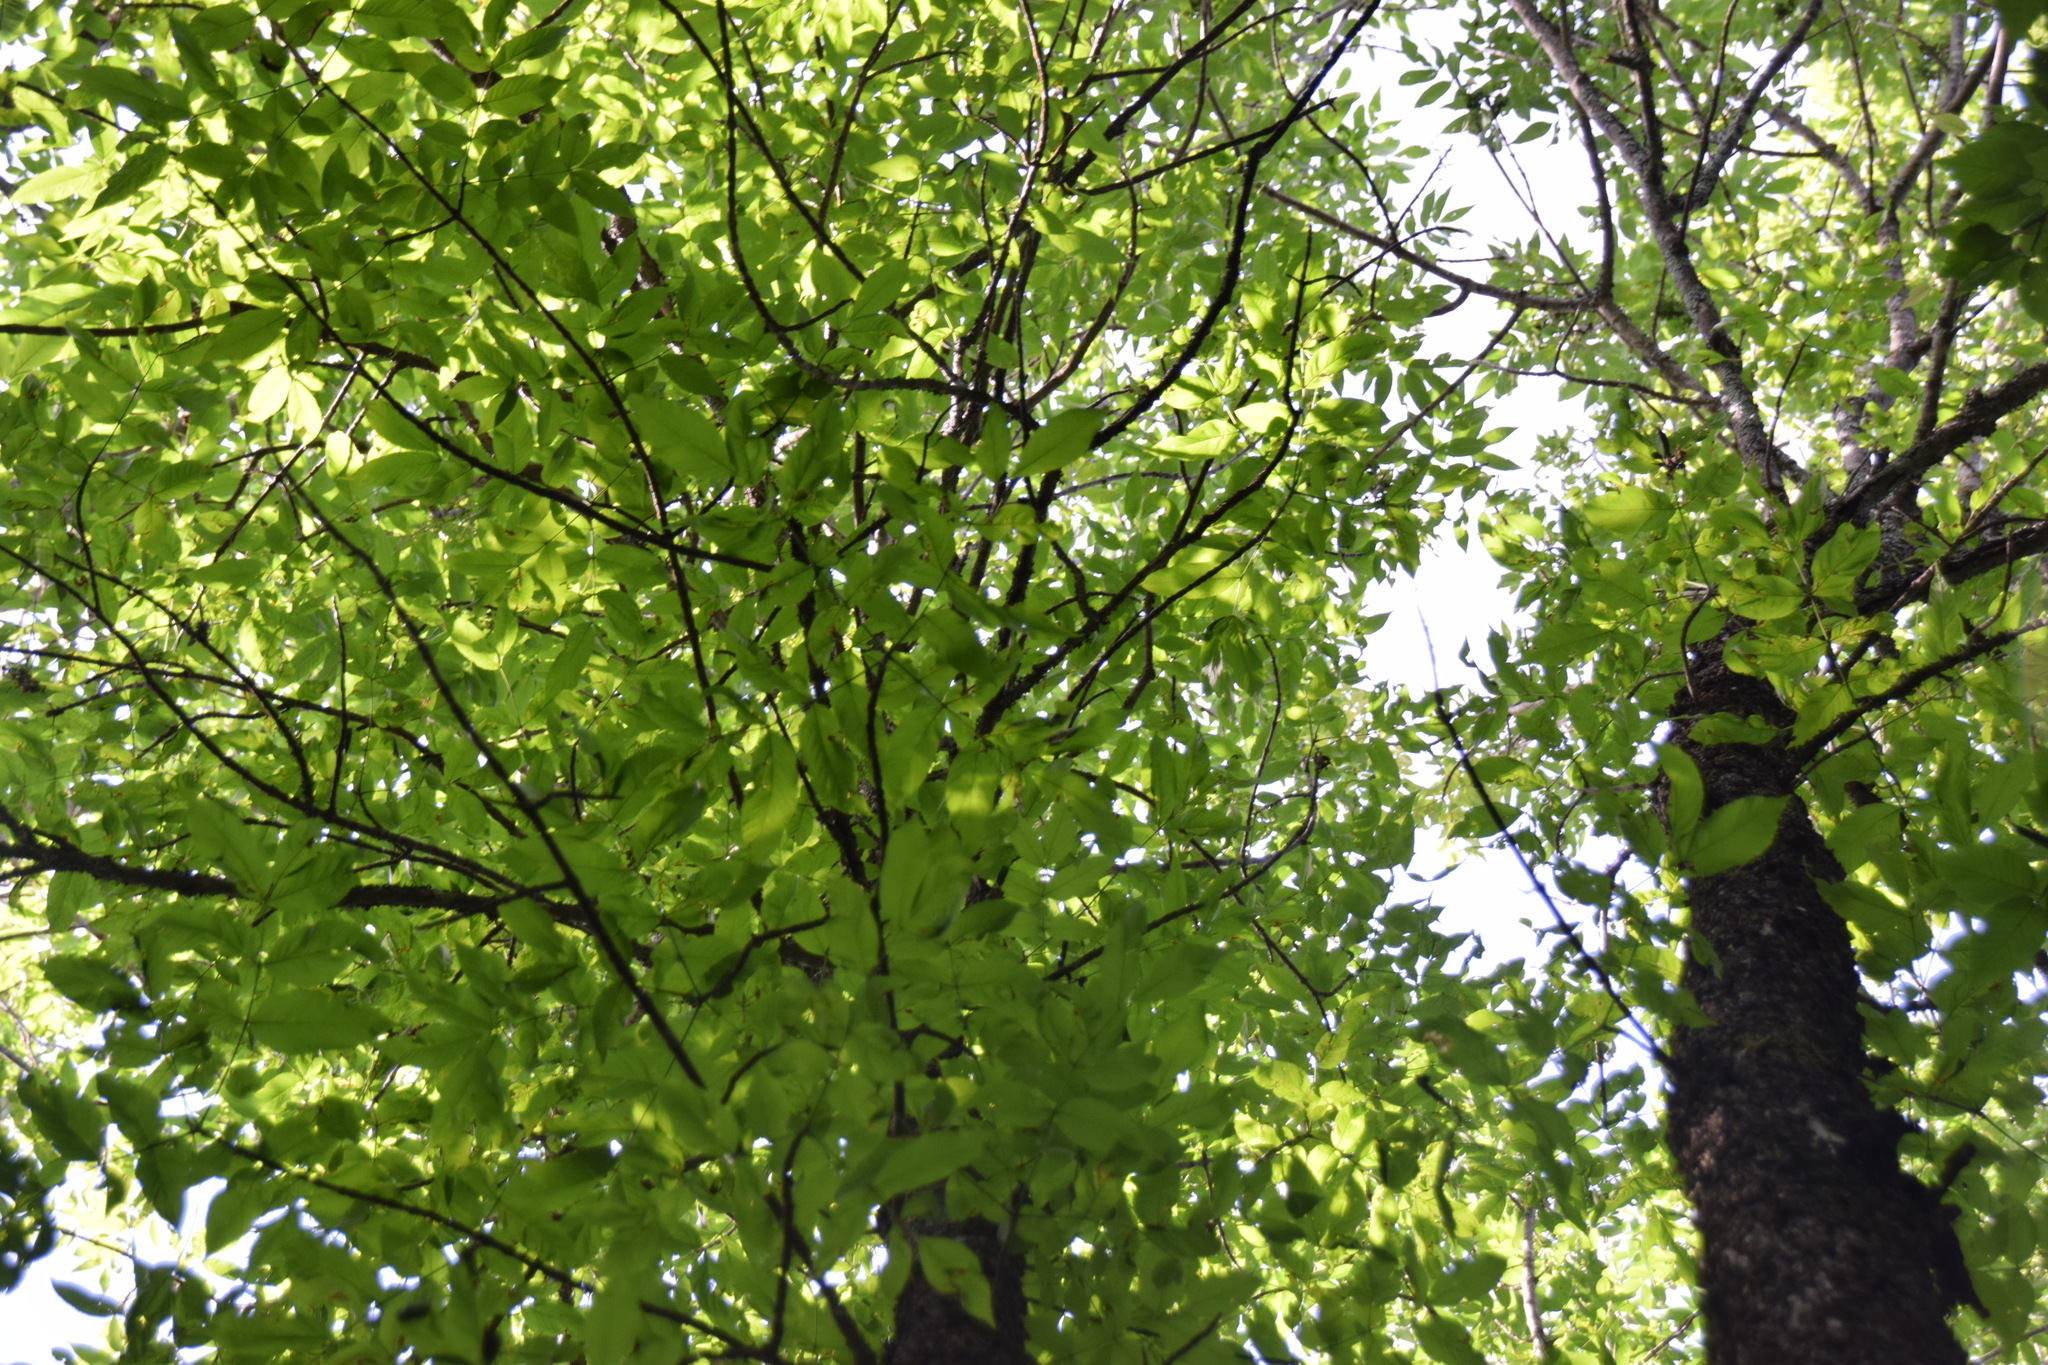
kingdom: Plantae
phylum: Tracheophyta
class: Magnoliopsida
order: Lamiales
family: Oleaceae
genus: Fraxinus
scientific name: Fraxinus nigra
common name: Black ash
